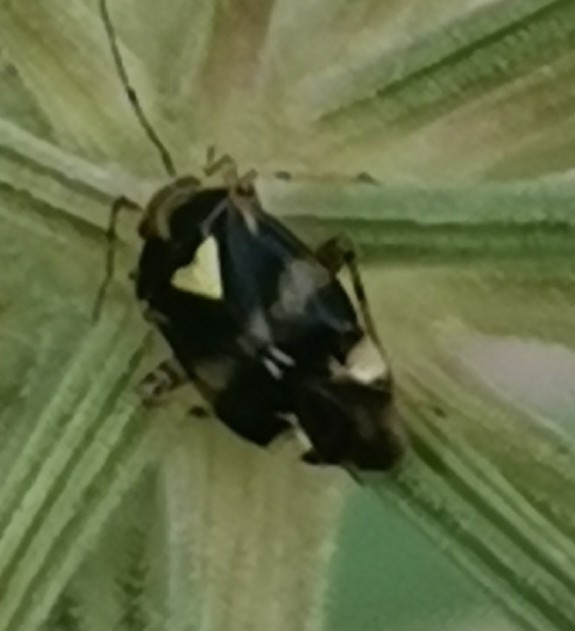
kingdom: Animalia
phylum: Arthropoda
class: Insecta
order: Hemiptera
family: Miridae
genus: Liocoris
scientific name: Liocoris tripustulatus
